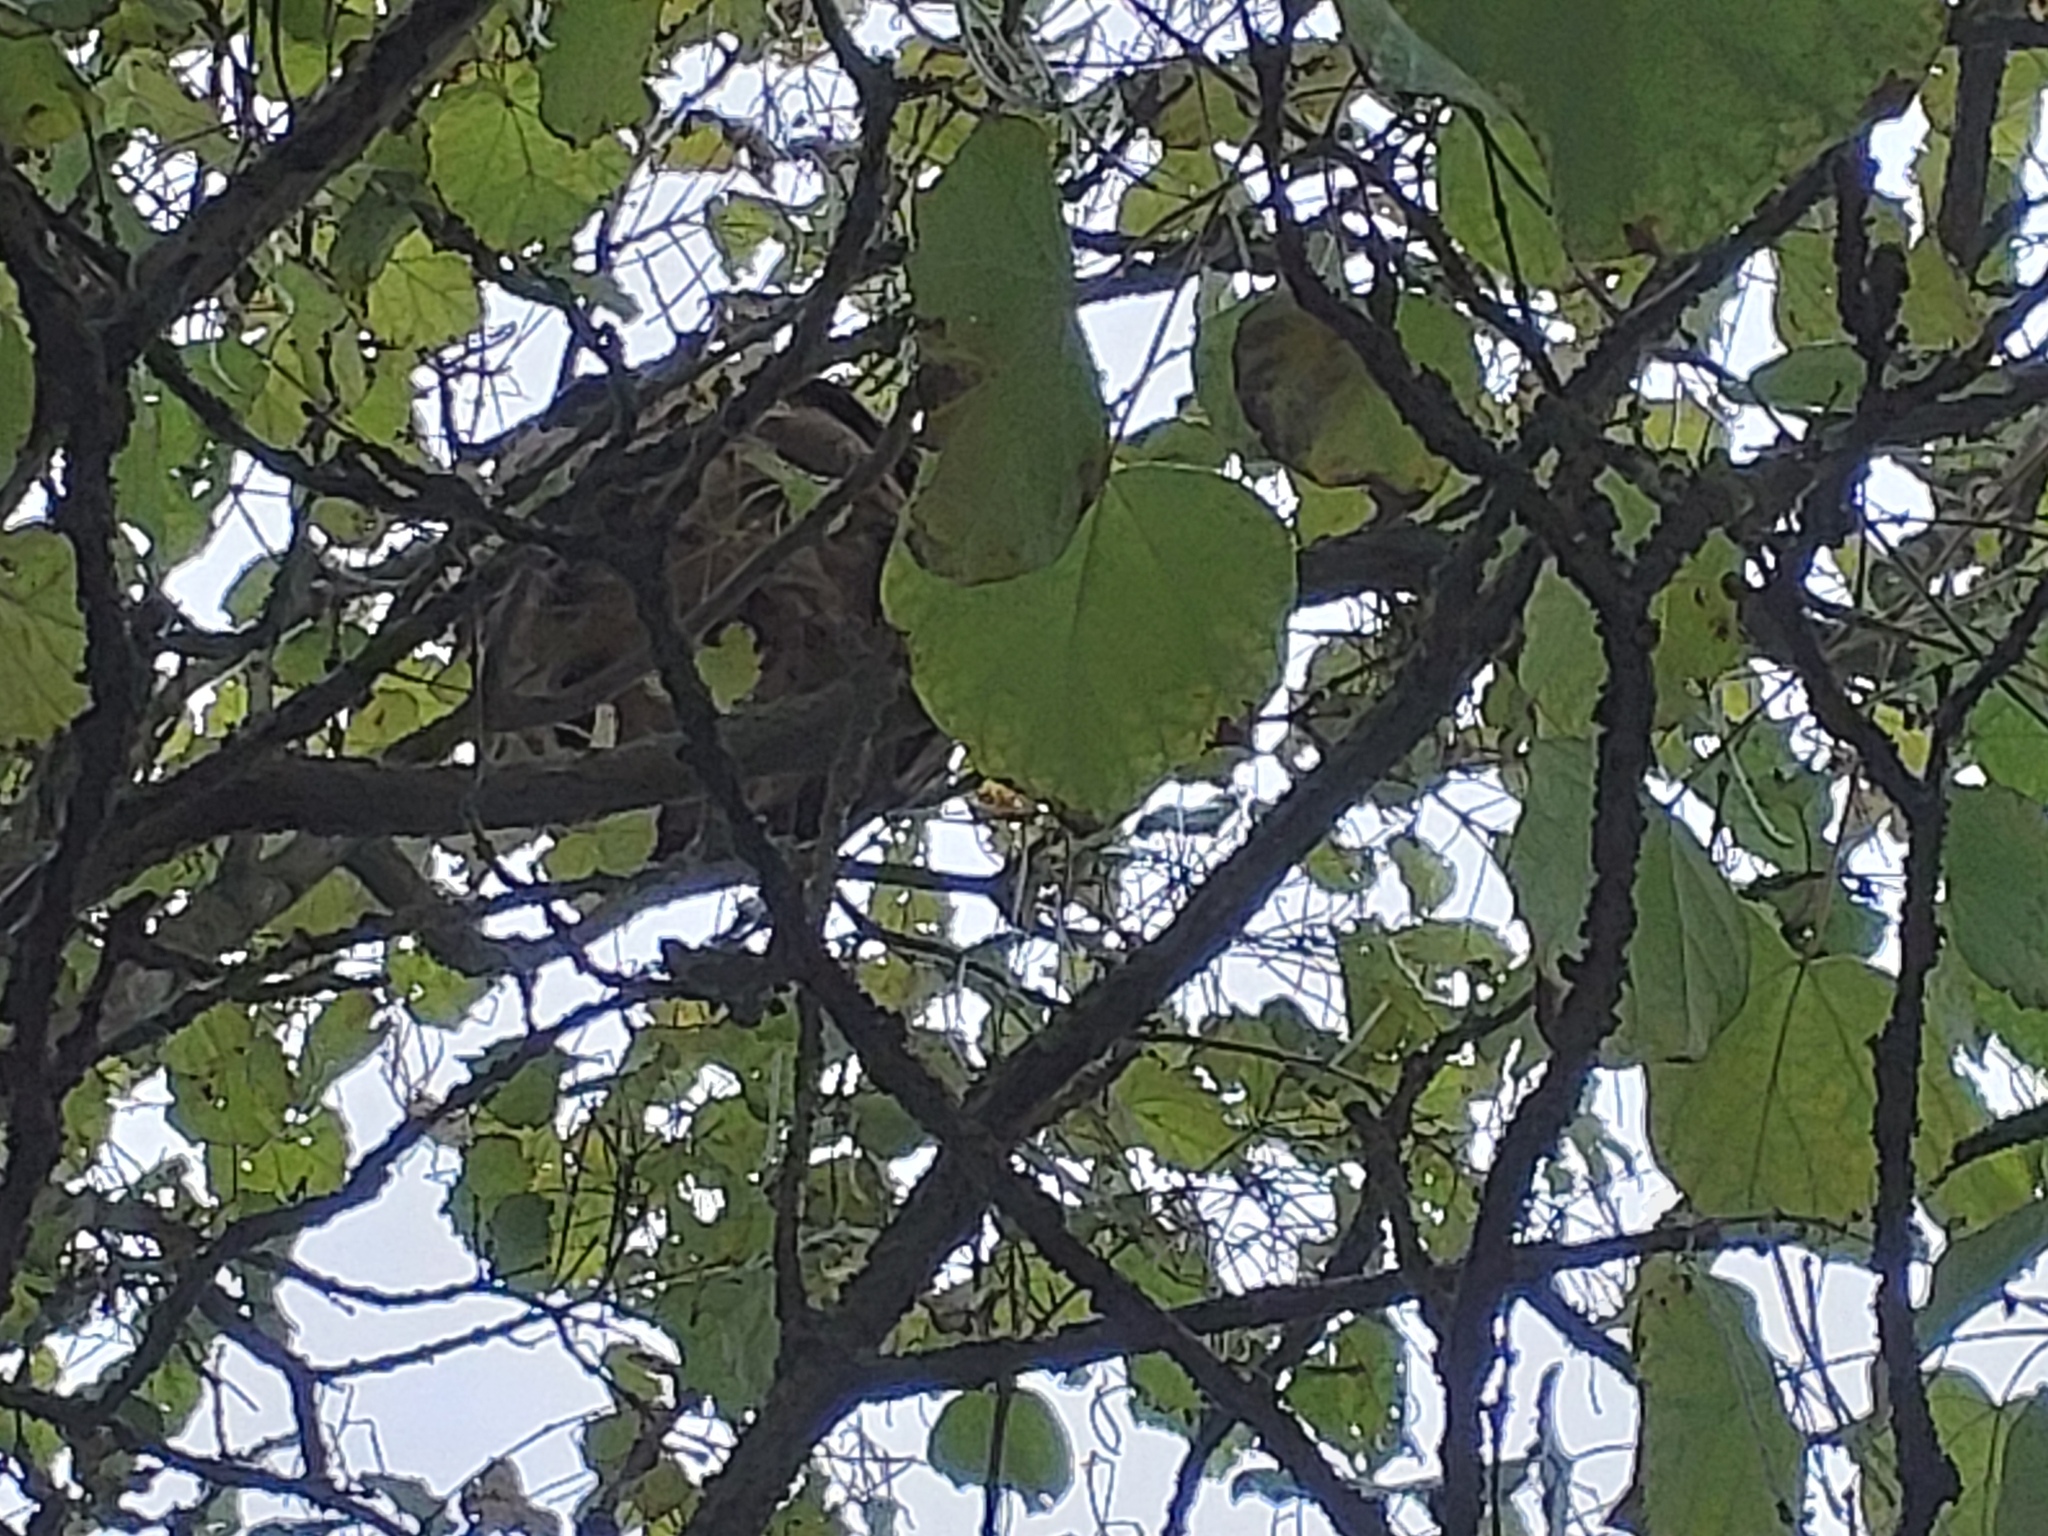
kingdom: Animalia
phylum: Arthropoda
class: Insecta
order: Hymenoptera
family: Vespidae
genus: Vespa
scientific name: Vespa velutina
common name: Asian hornet
